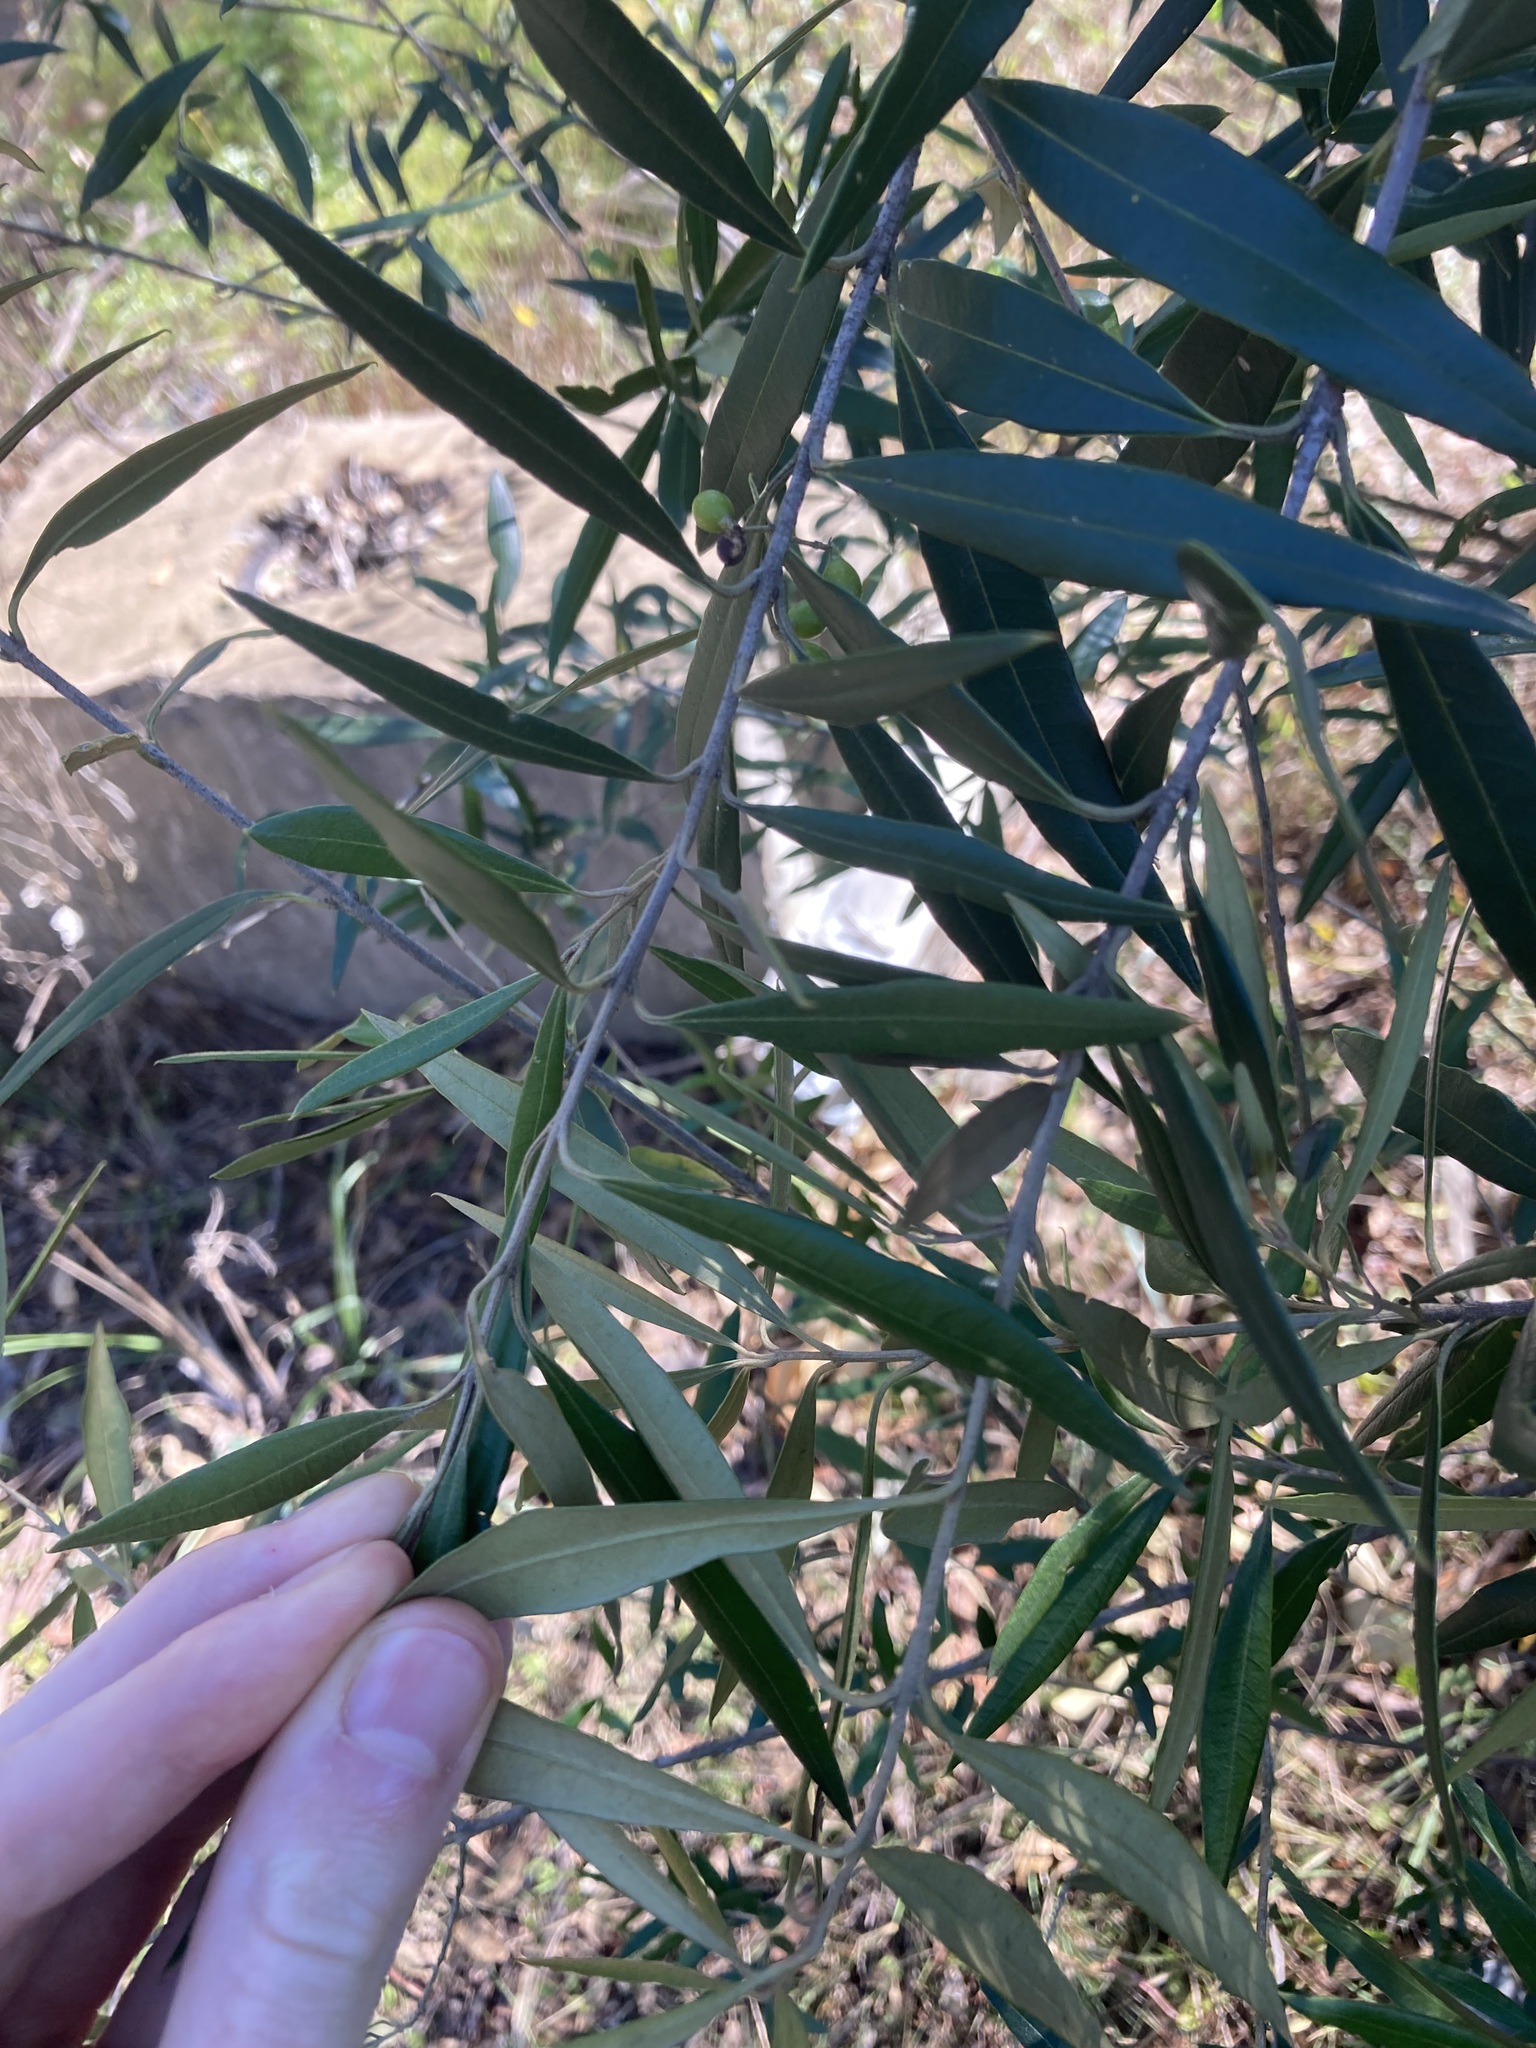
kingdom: Plantae
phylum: Tracheophyta
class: Magnoliopsida
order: Lamiales
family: Oleaceae
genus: Olea
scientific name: Olea europaea
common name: Olive
